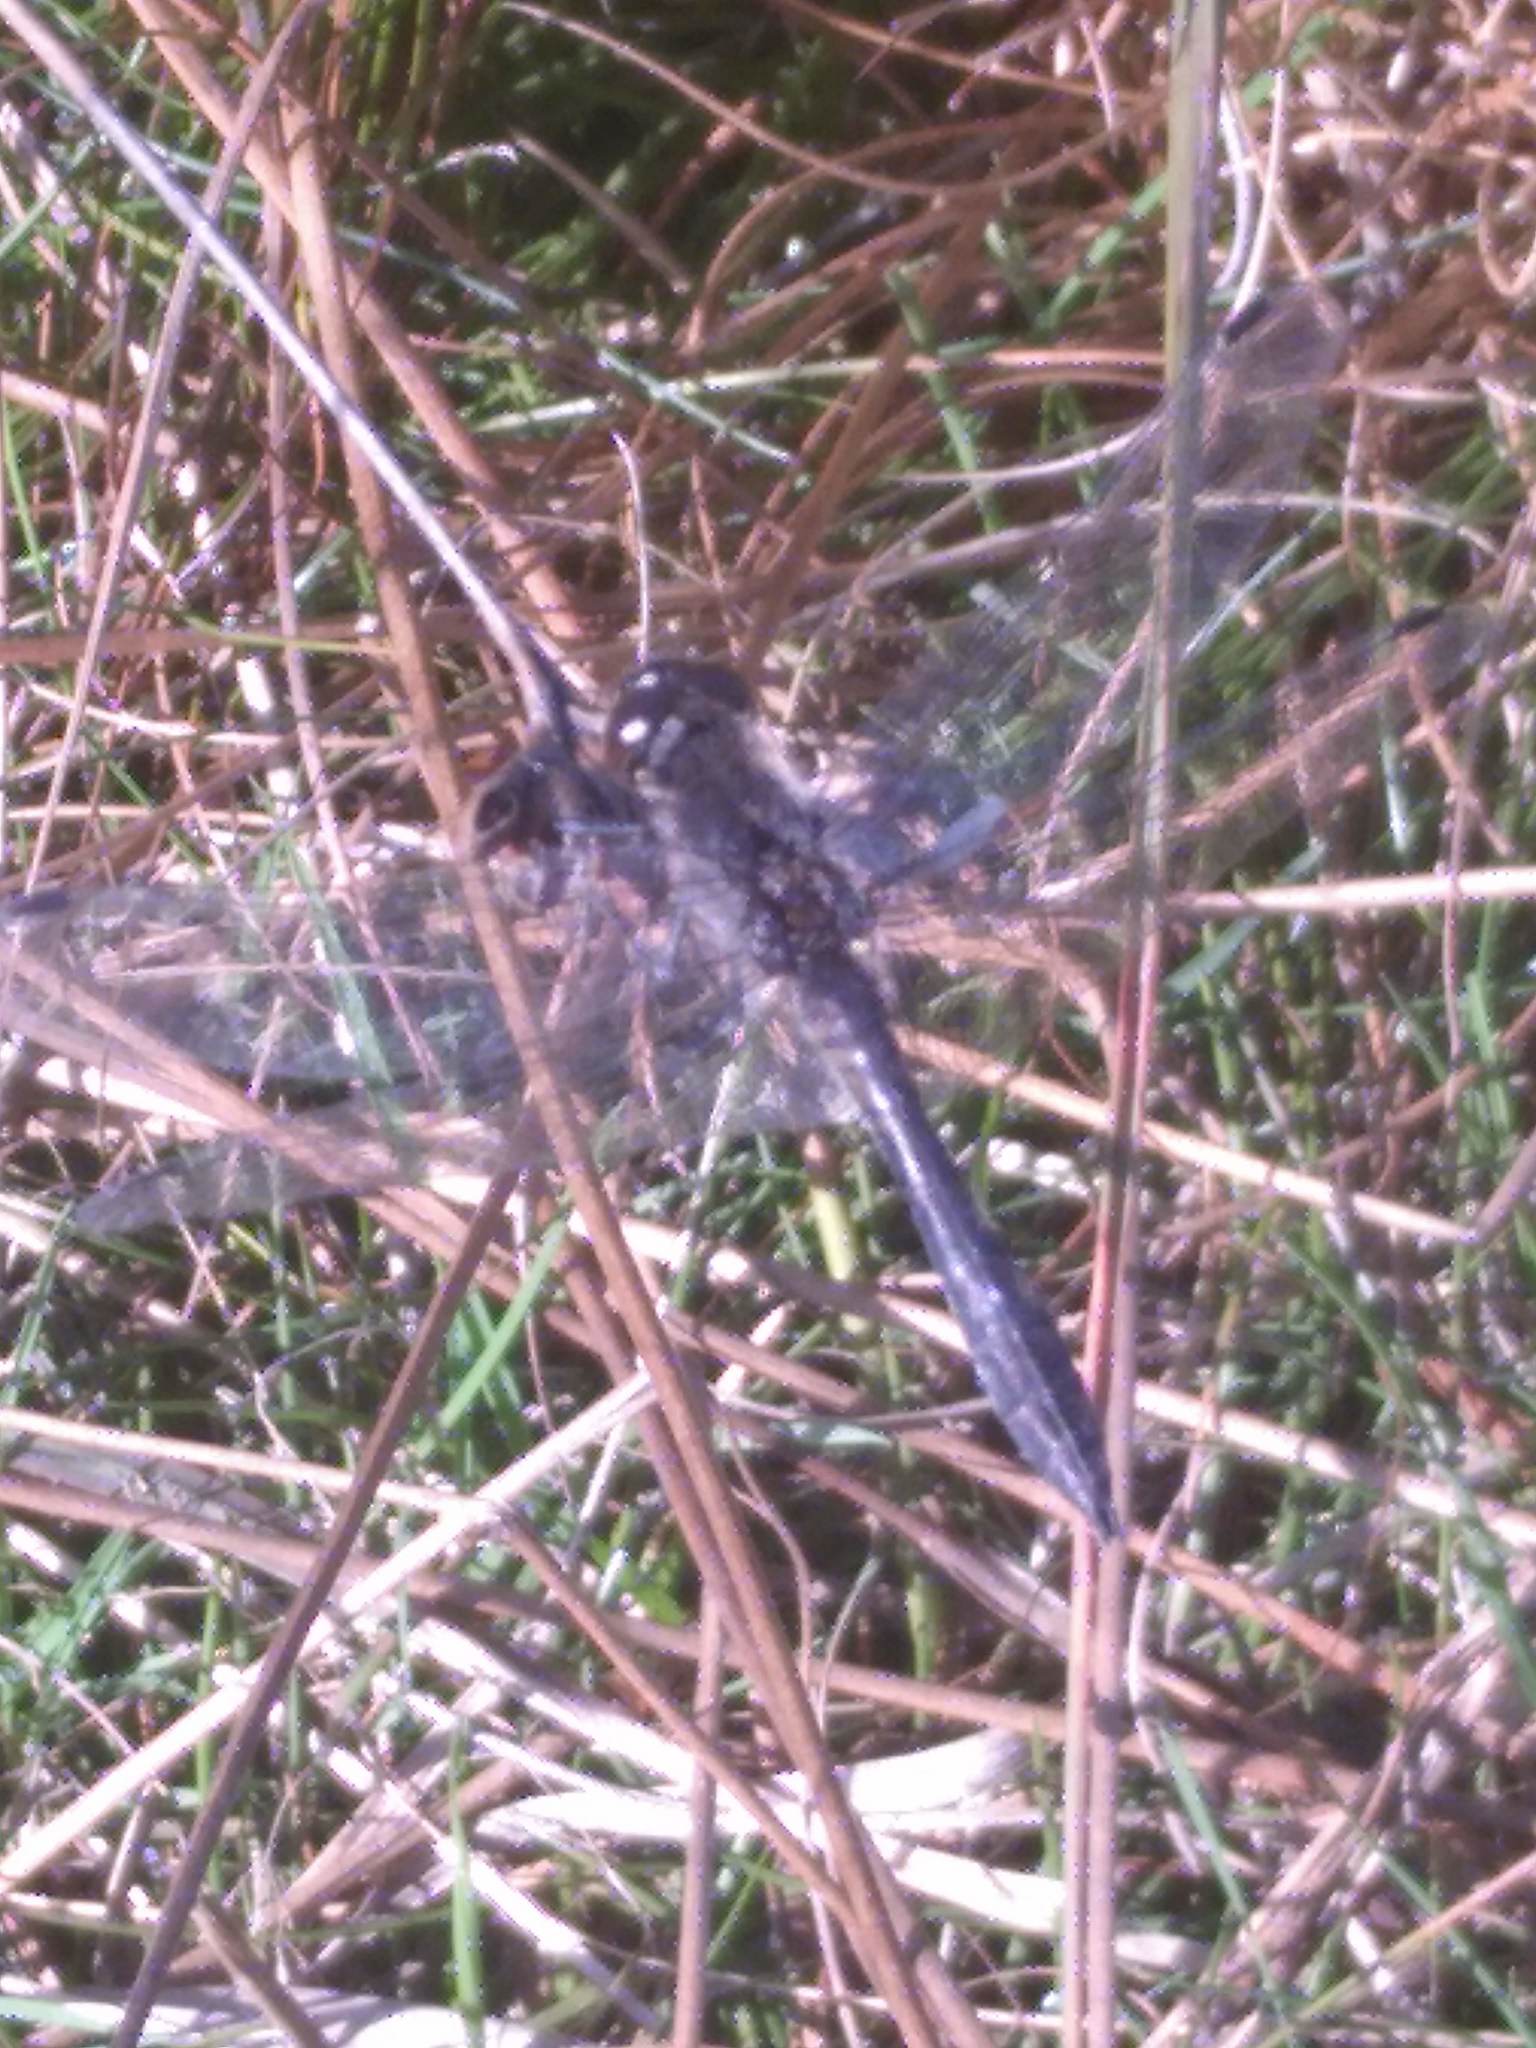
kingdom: Animalia
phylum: Arthropoda
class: Insecta
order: Odonata
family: Libellulidae
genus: Sympetrum
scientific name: Sympetrum danae
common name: Black darter
